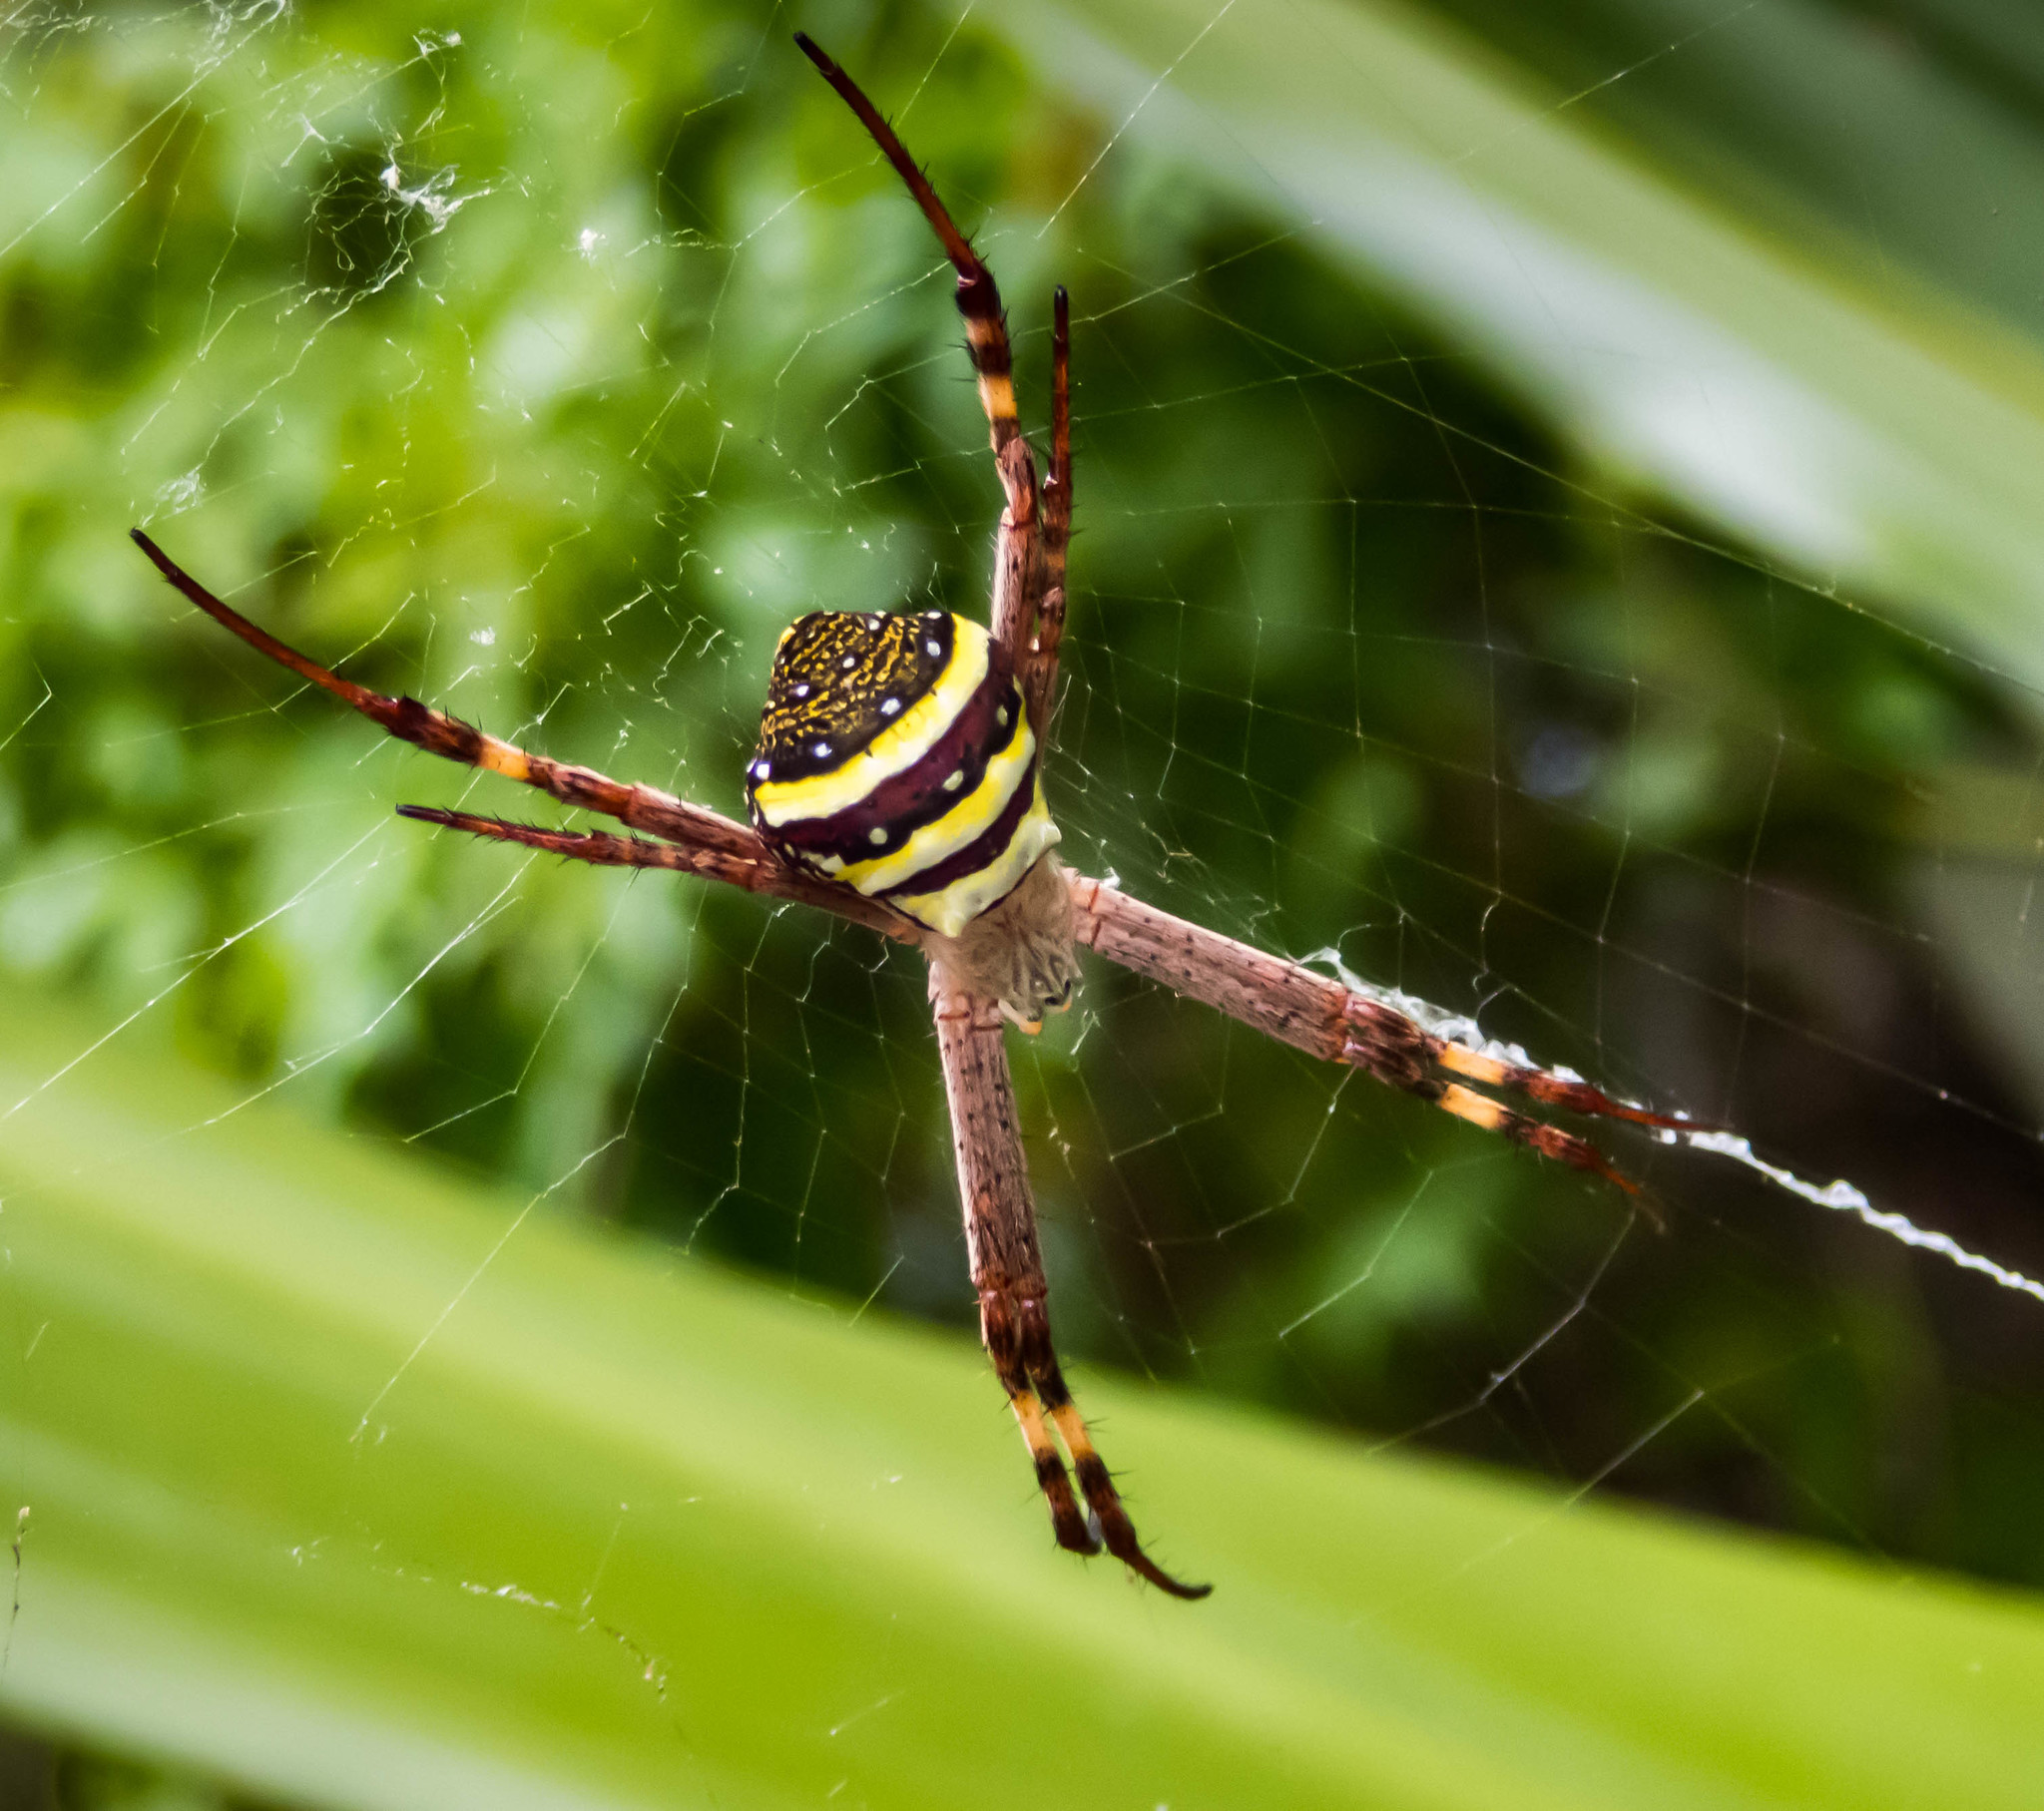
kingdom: Animalia
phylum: Arthropoda
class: Arachnida
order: Araneae
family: Araneidae
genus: Argiope
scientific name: Argiope keyserlingi
